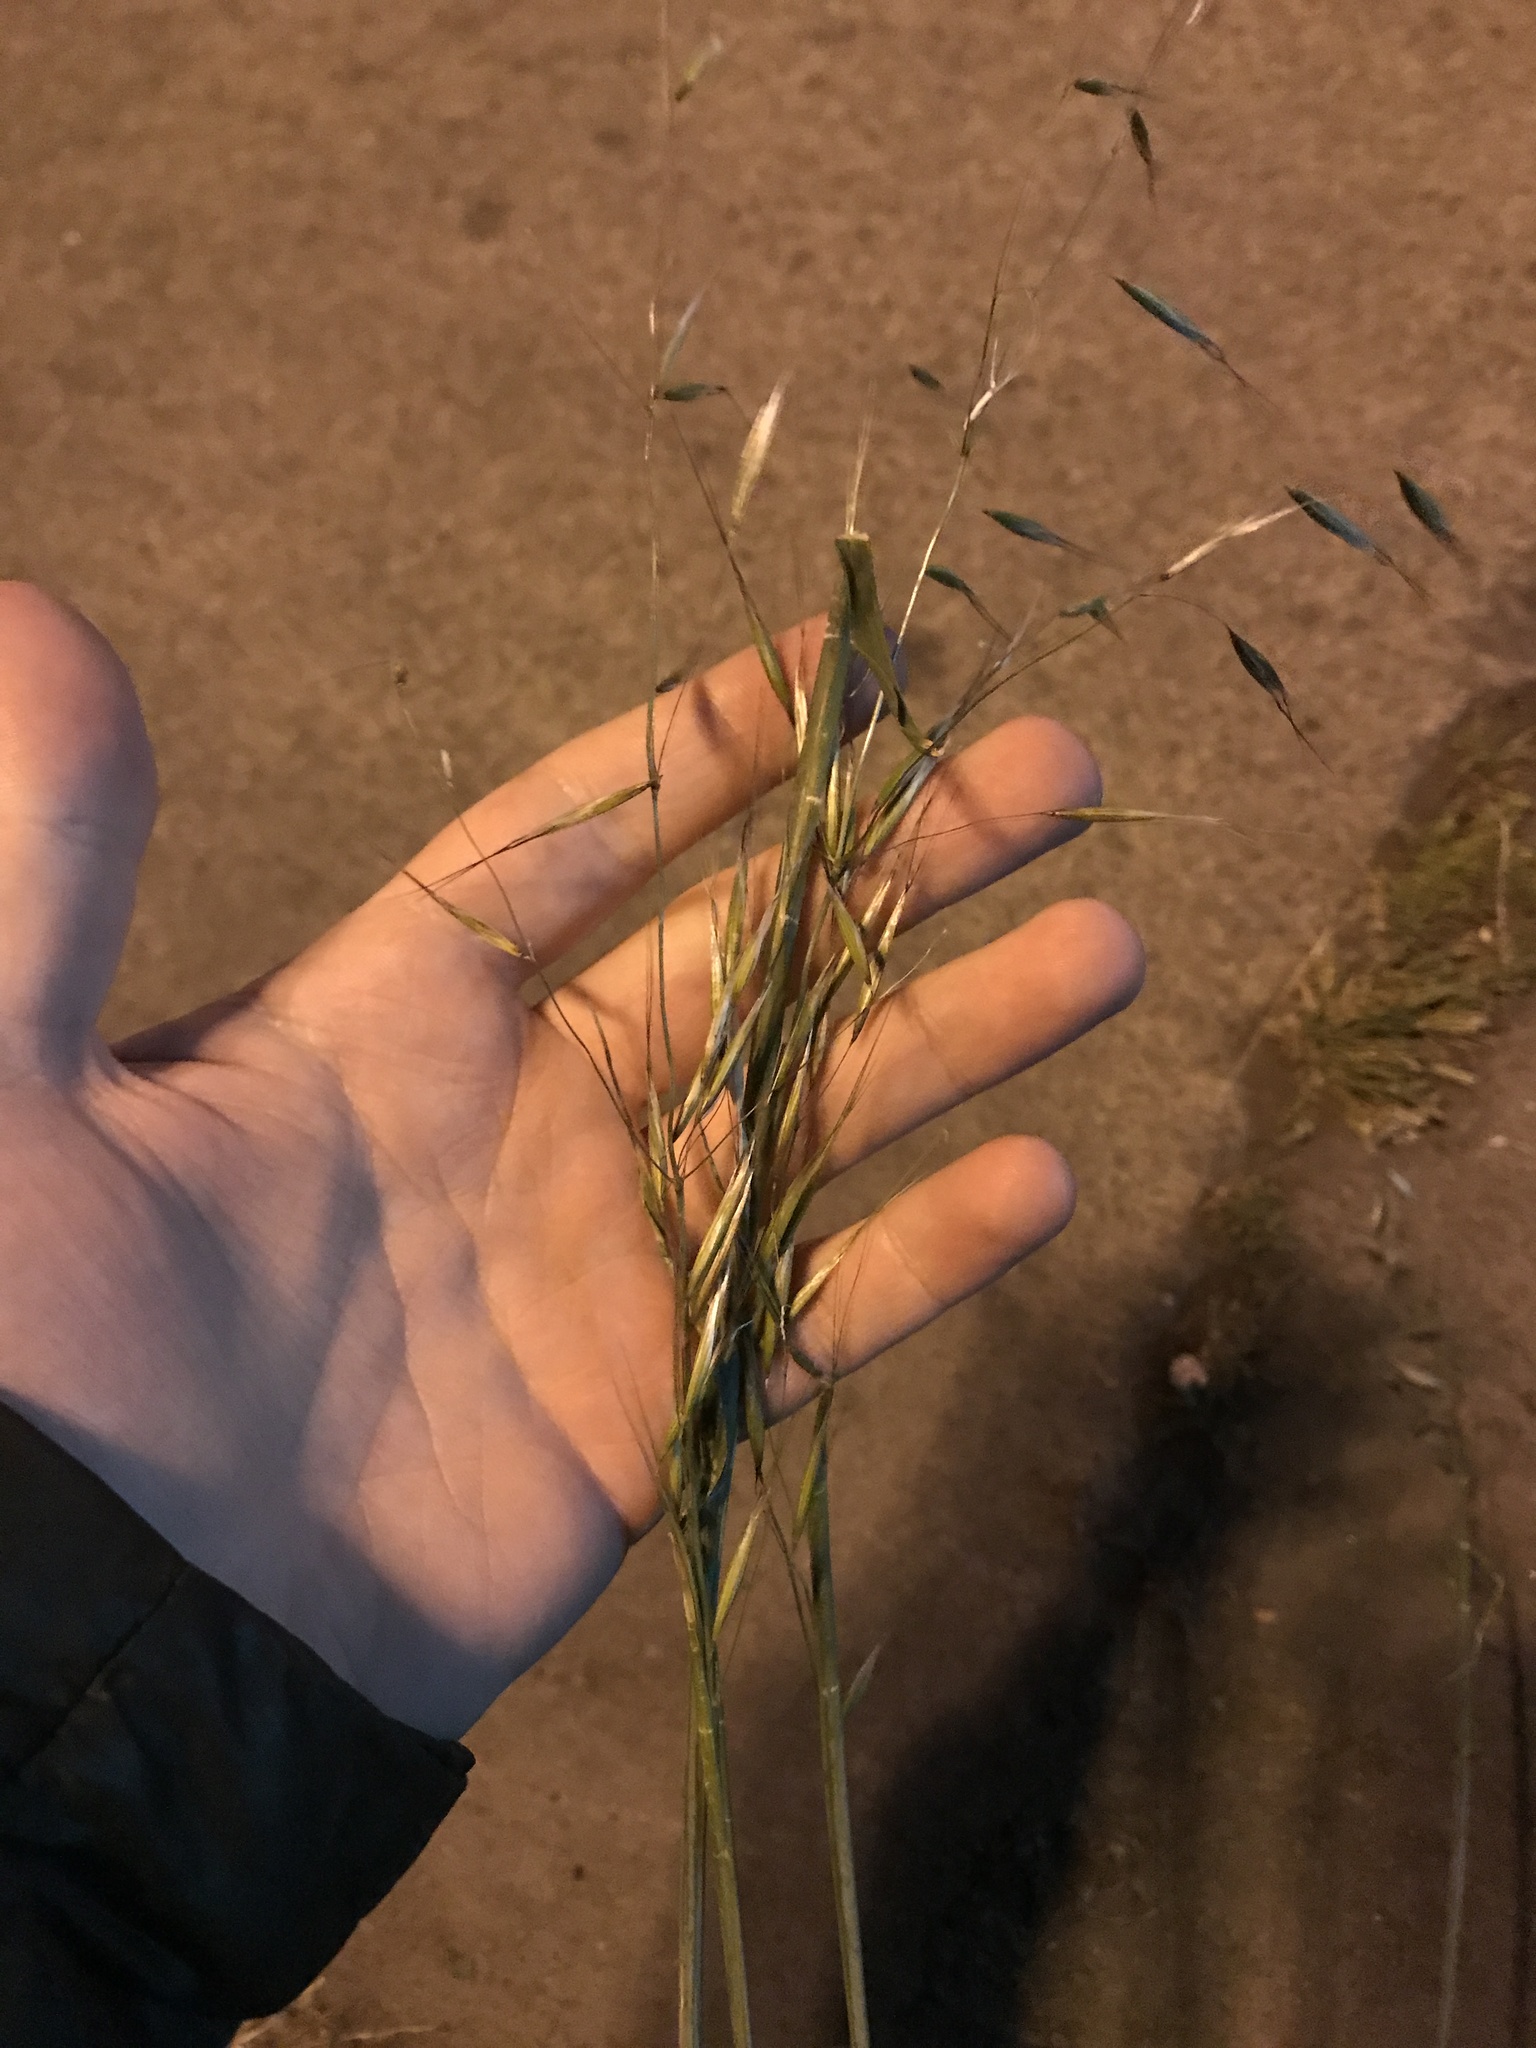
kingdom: Plantae
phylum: Tracheophyta
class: Liliopsida
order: Poales
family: Poaceae
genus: Avena
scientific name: Avena barbata
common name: Slender oat
